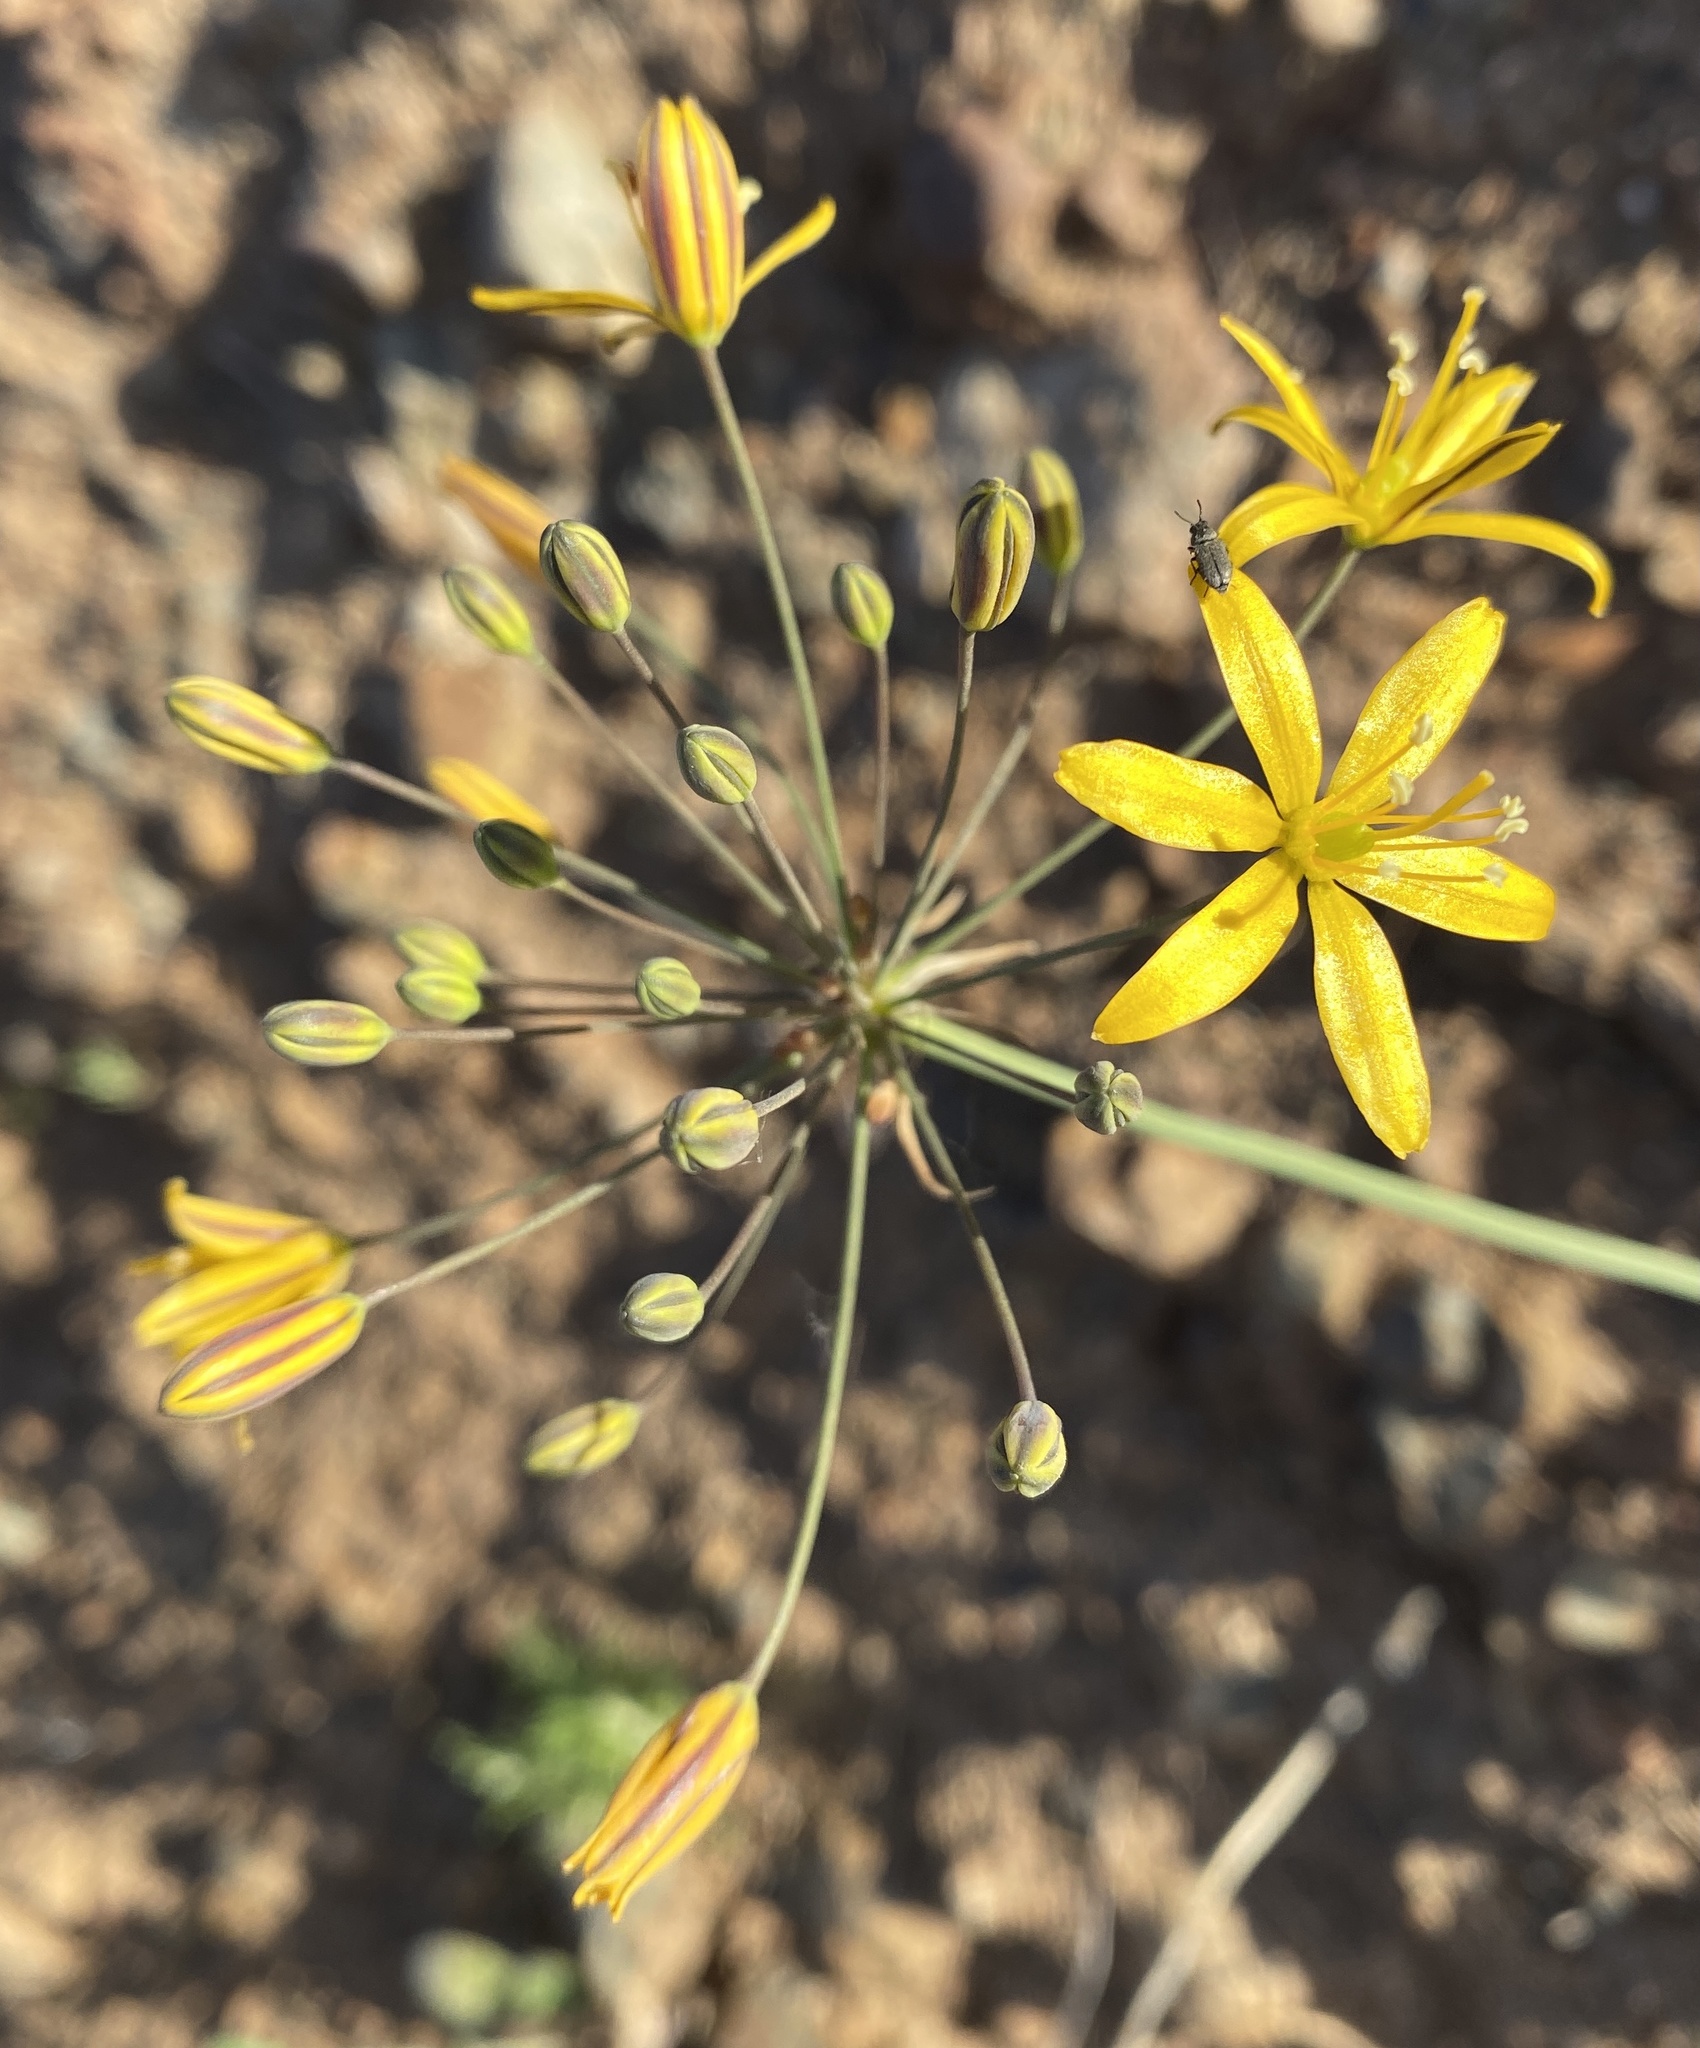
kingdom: Plantae
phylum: Tracheophyta
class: Liliopsida
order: Asparagales
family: Asparagaceae
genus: Bloomeria
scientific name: Bloomeria crocea
